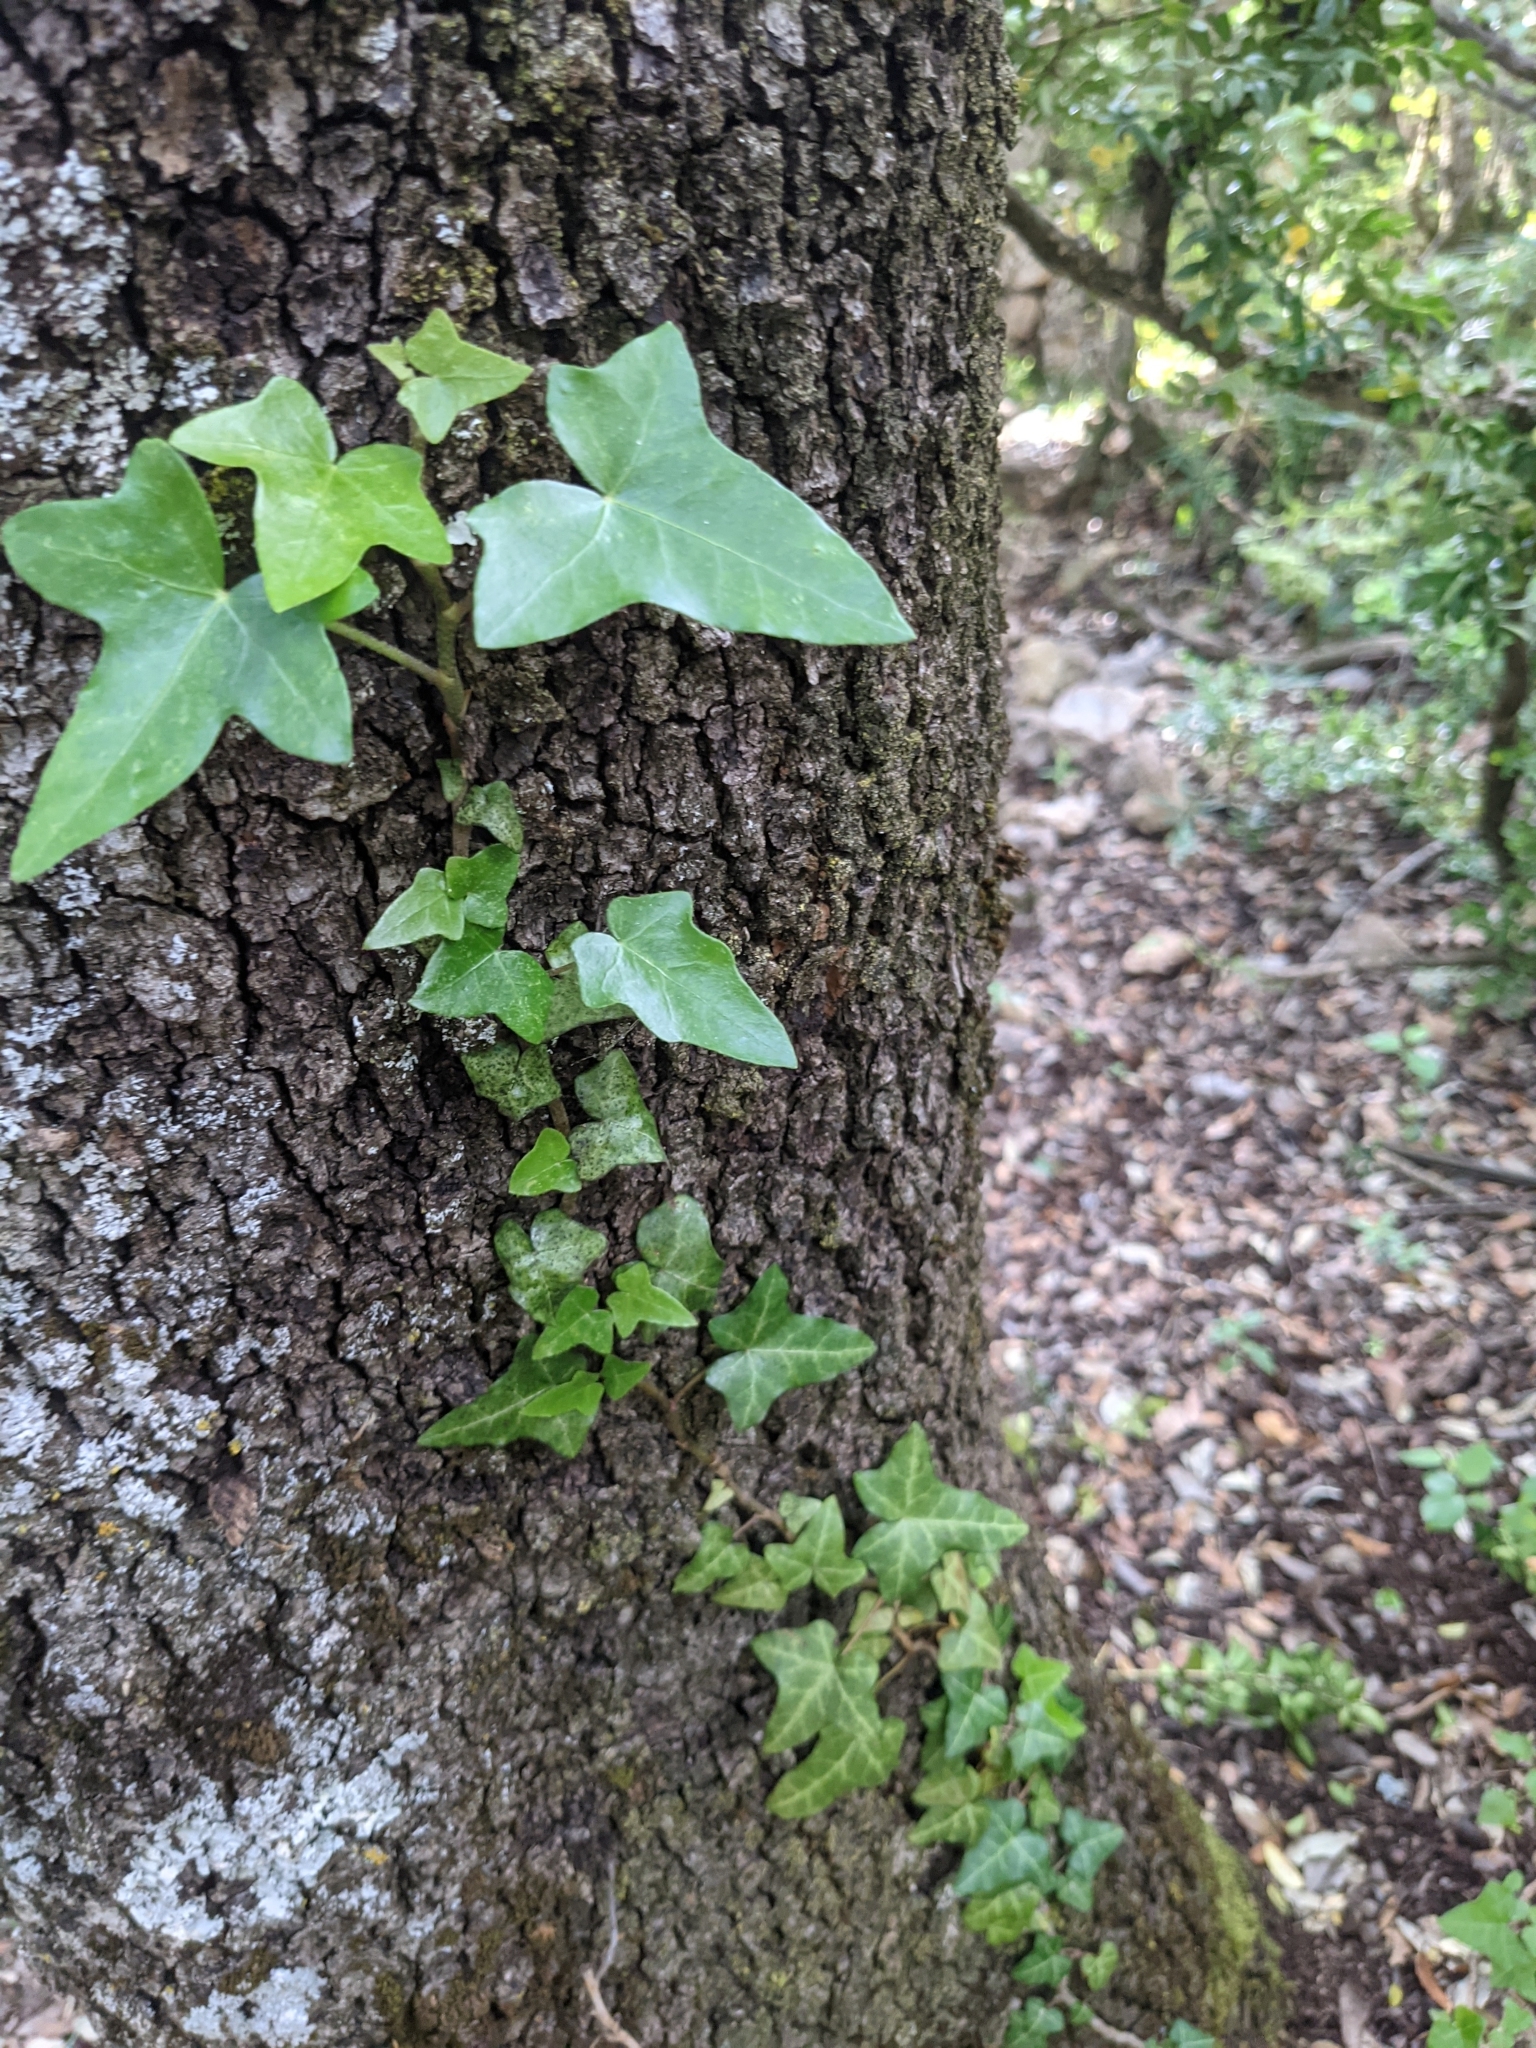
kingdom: Plantae
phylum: Tracheophyta
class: Magnoliopsida
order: Apiales
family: Araliaceae
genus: Hedera
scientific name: Hedera helix
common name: Ivy
